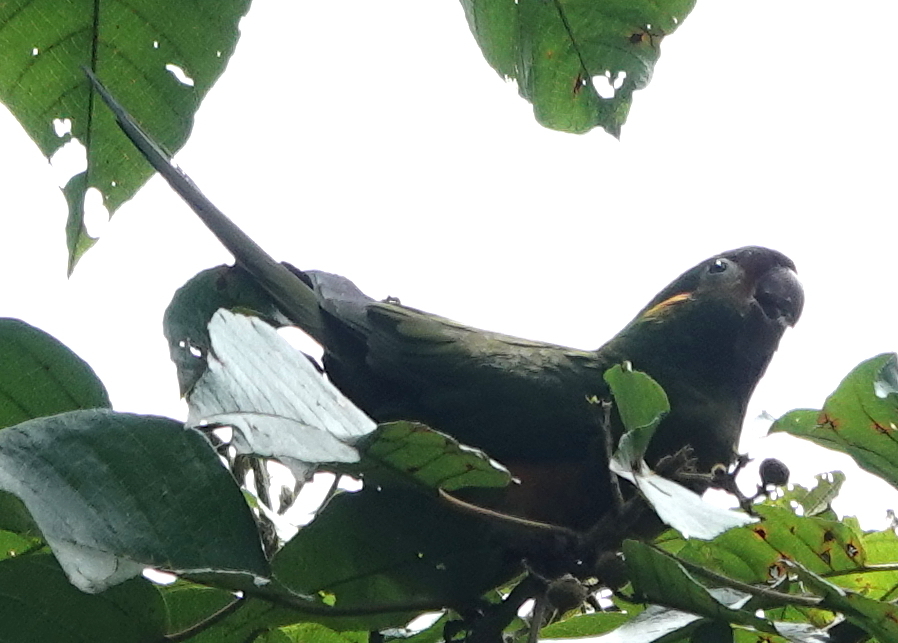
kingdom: Animalia
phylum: Chordata
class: Aves
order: Psittaciformes
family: Psittacidae
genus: Leptosittaca
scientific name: Leptosittaca branickii
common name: Golden-plumed parakeet
